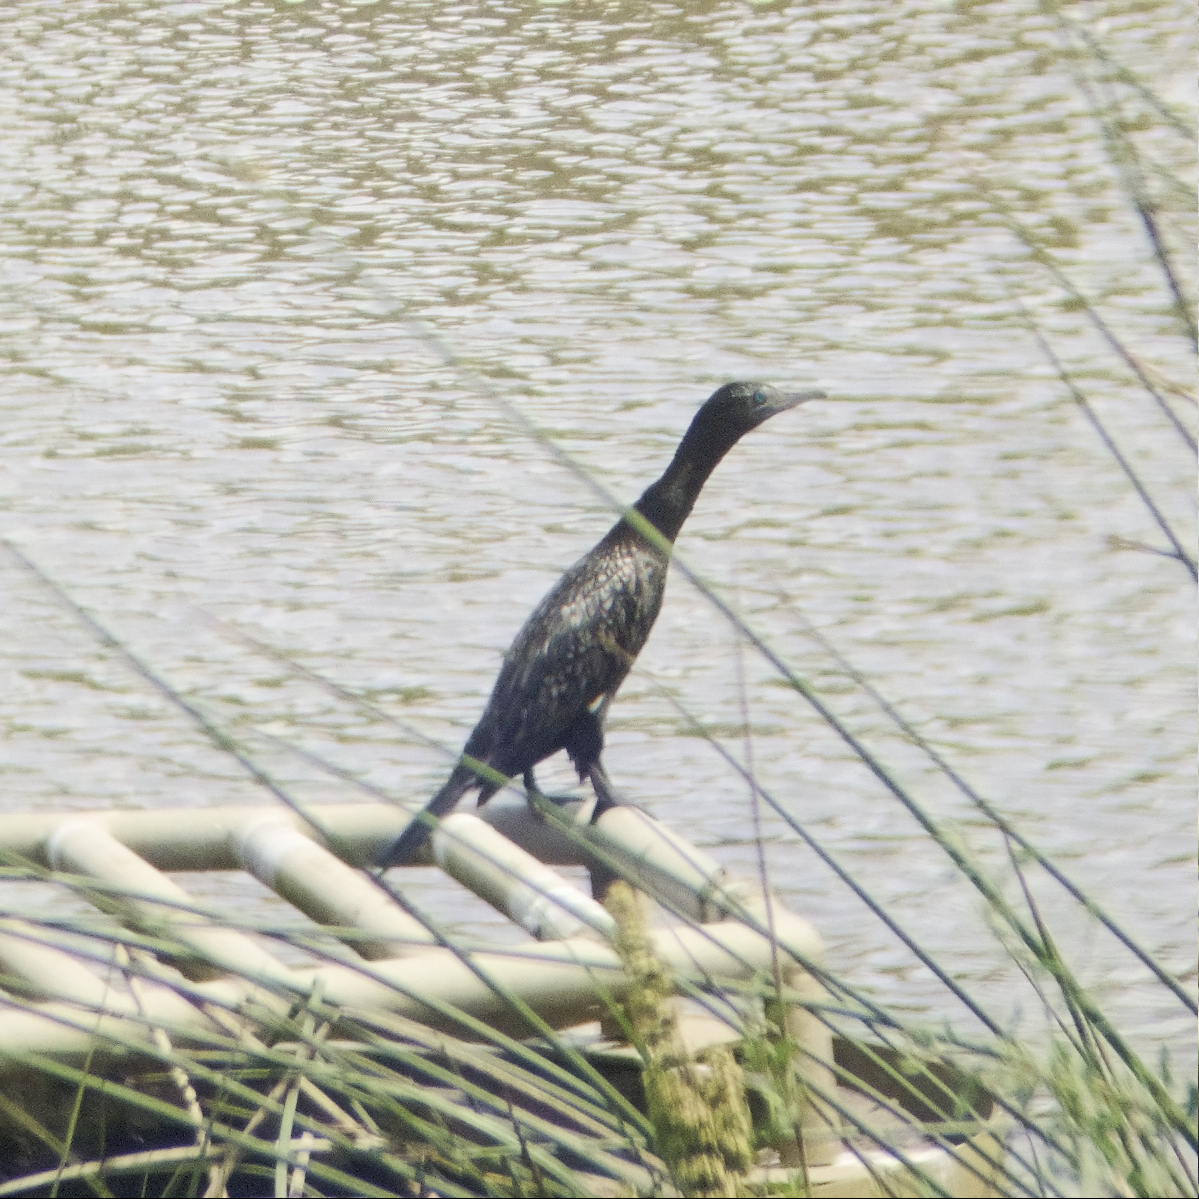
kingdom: Animalia
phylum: Chordata
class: Aves
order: Suliformes
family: Phalacrocoracidae
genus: Phalacrocorax
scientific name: Phalacrocorax sulcirostris
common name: Little black cormorant
